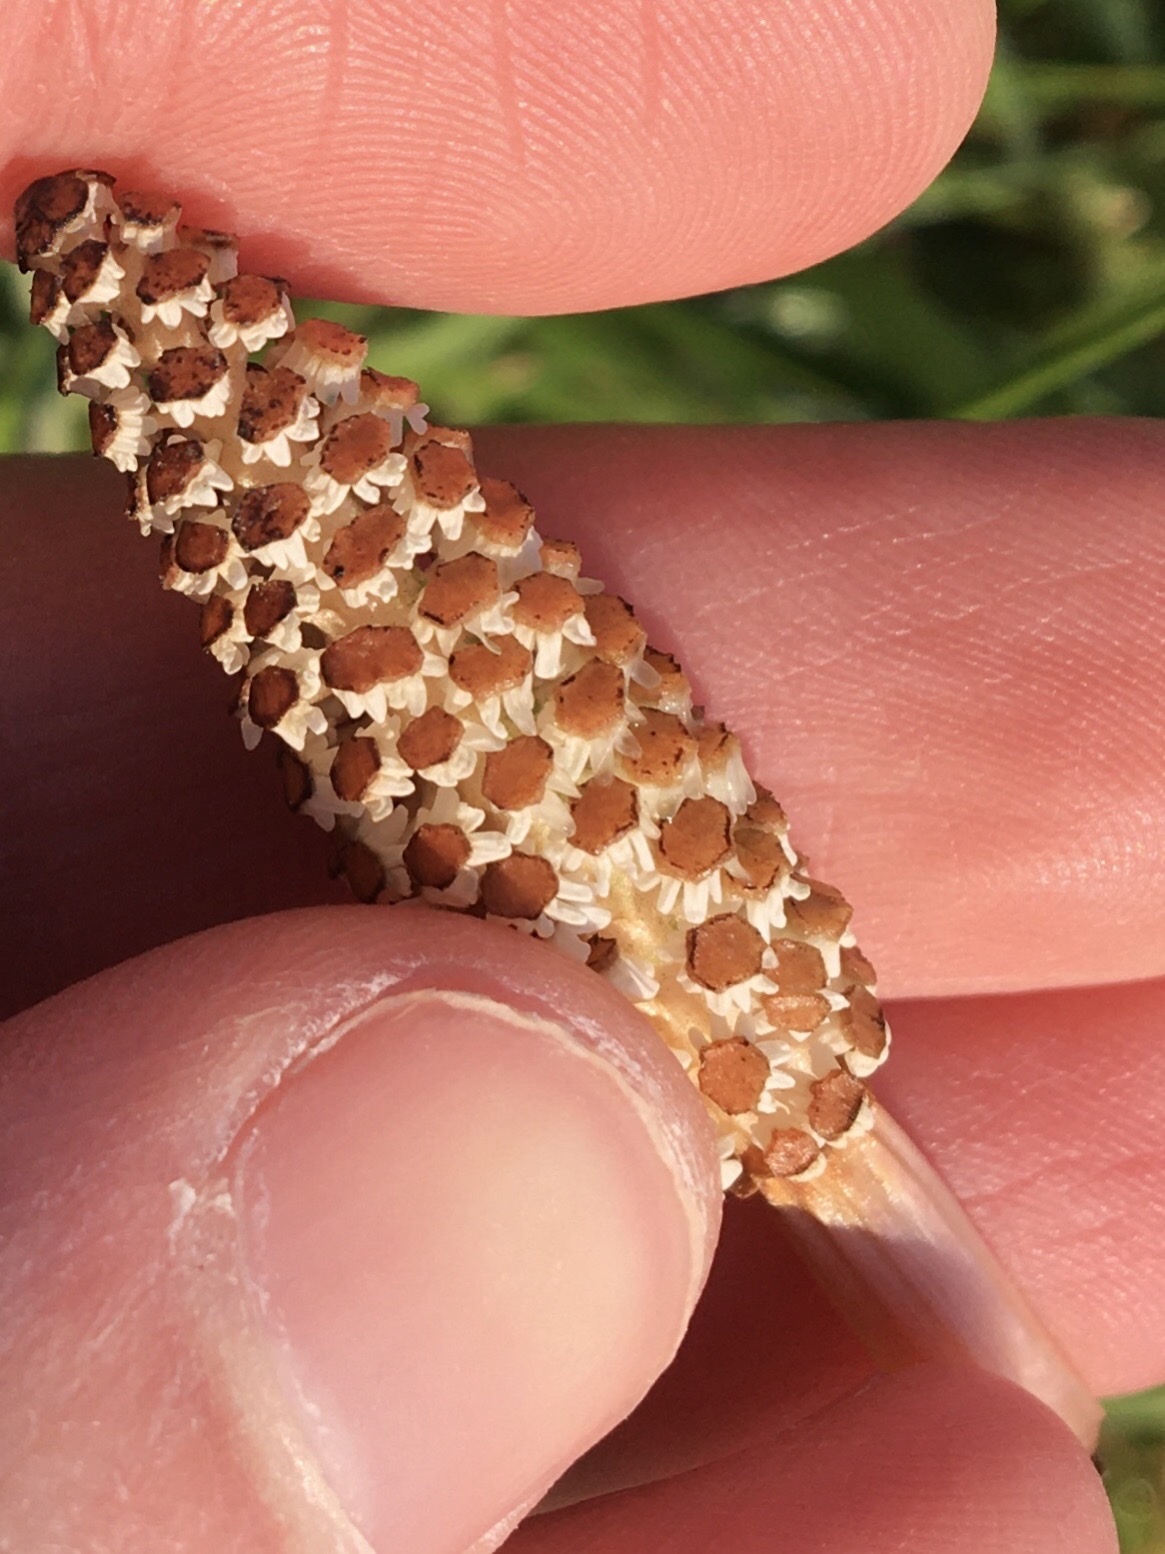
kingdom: Plantae
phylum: Tracheophyta
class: Polypodiopsida
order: Equisetales
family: Equisetaceae
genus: Equisetum
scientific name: Equisetum arvense
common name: Field horsetail
